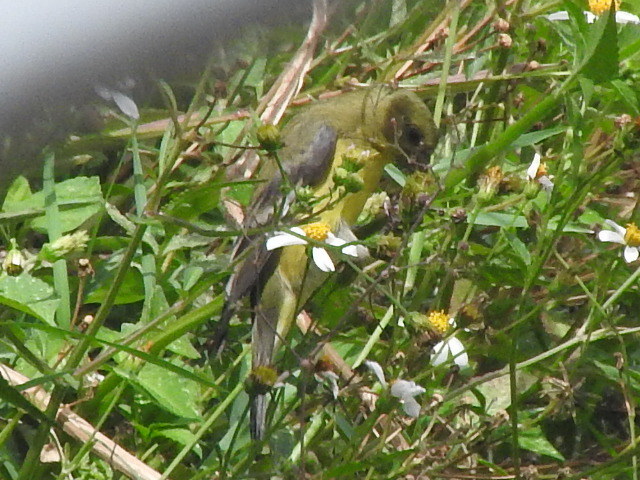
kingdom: Animalia
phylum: Chordata
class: Aves
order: Passeriformes
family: Fringillidae
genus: Spinus
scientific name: Spinus psaltria
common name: Lesser goldfinch
